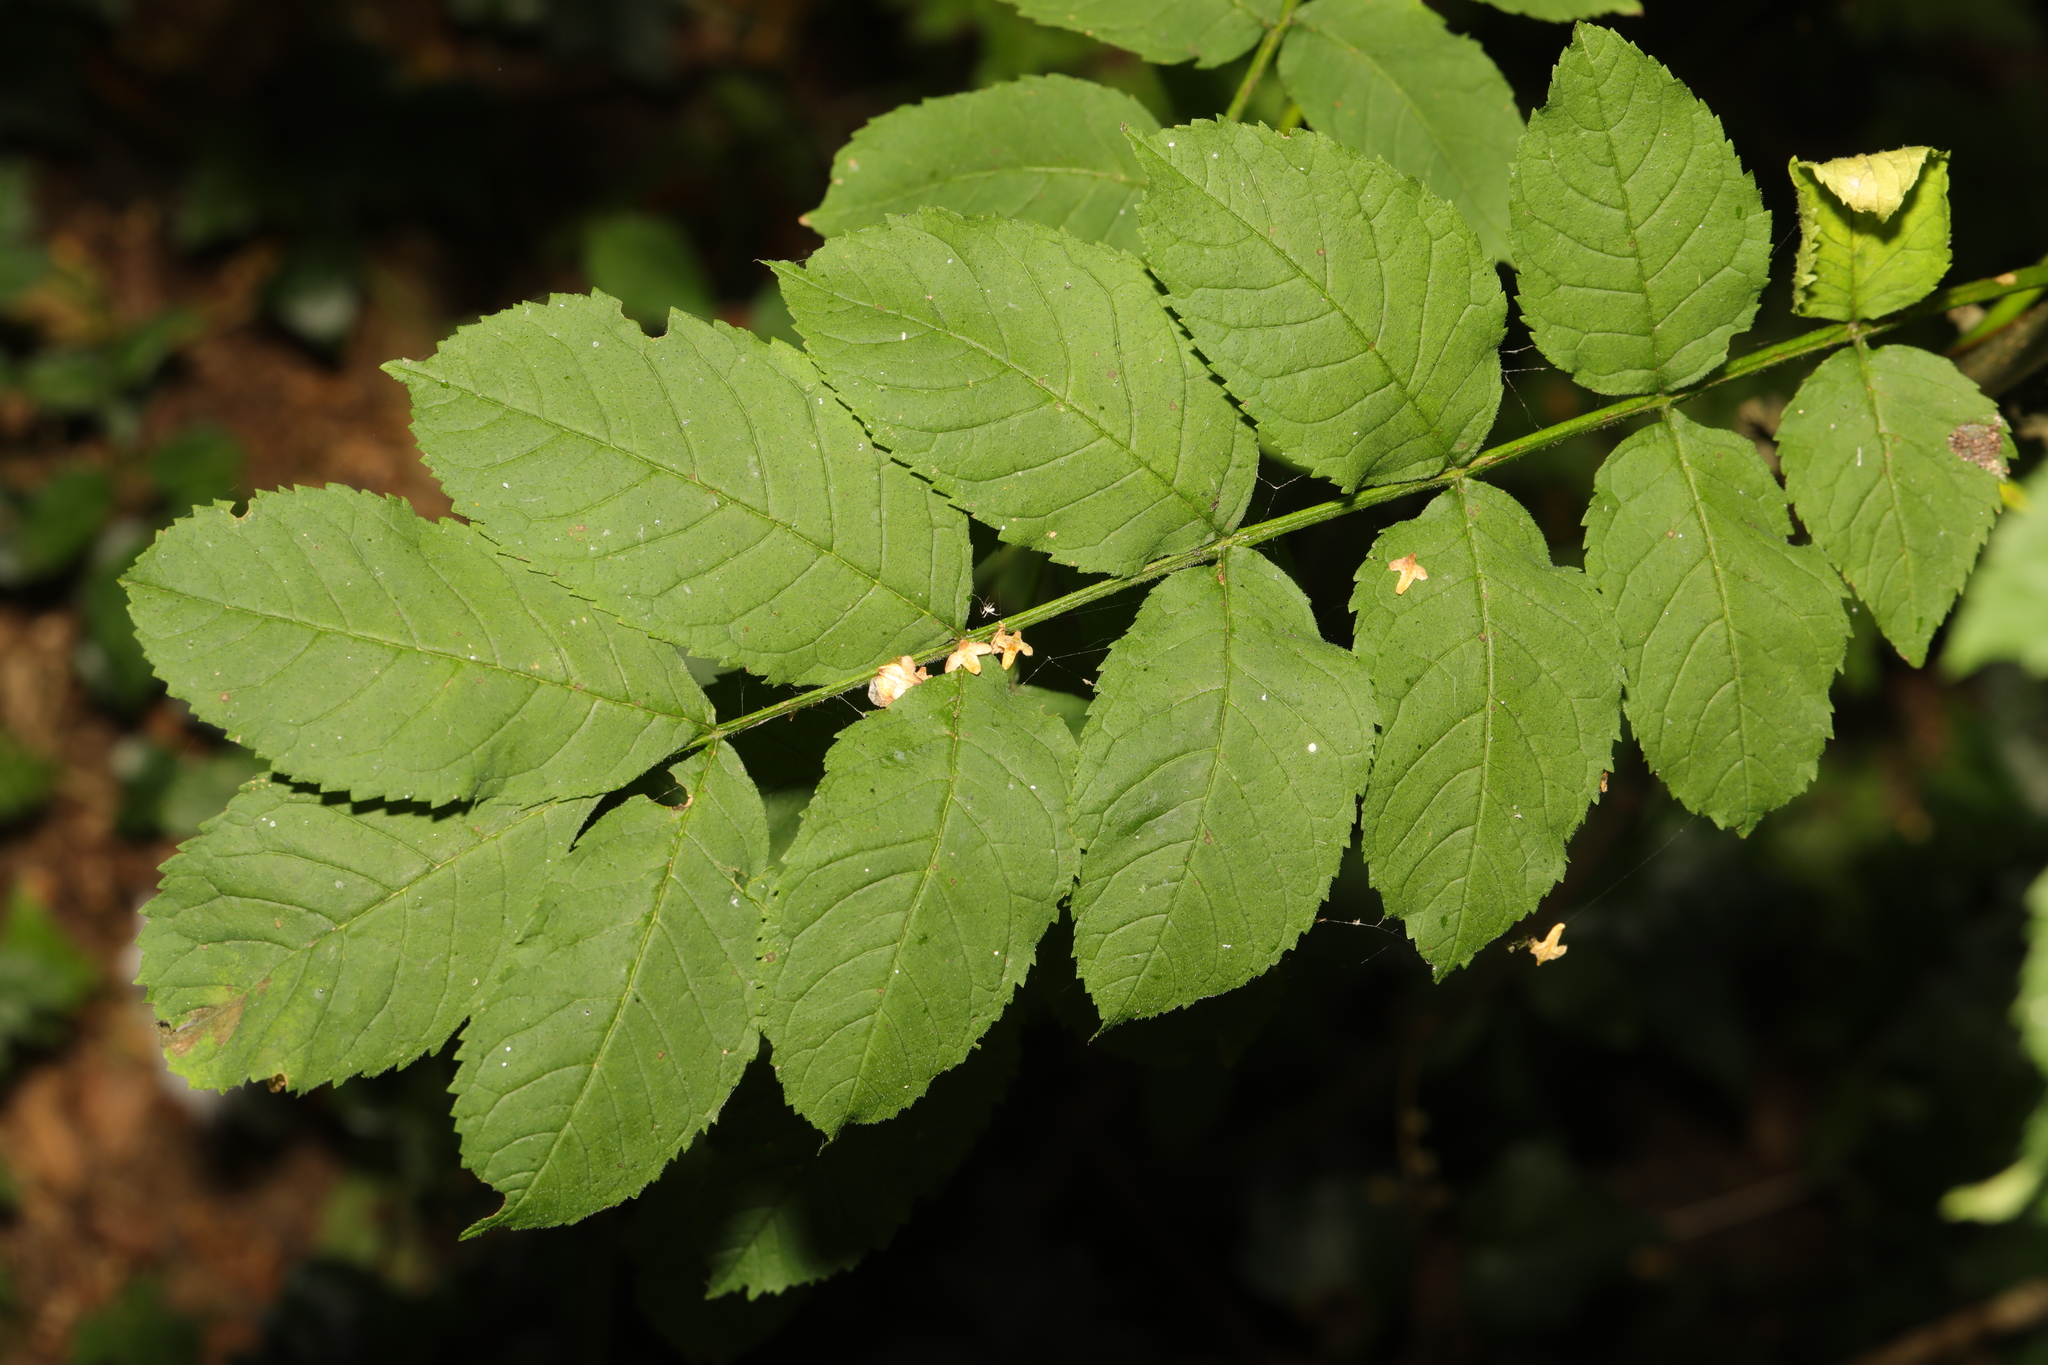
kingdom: Plantae
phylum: Tracheophyta
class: Magnoliopsida
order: Lamiales
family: Oleaceae
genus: Fraxinus
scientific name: Fraxinus excelsior
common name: European ash
